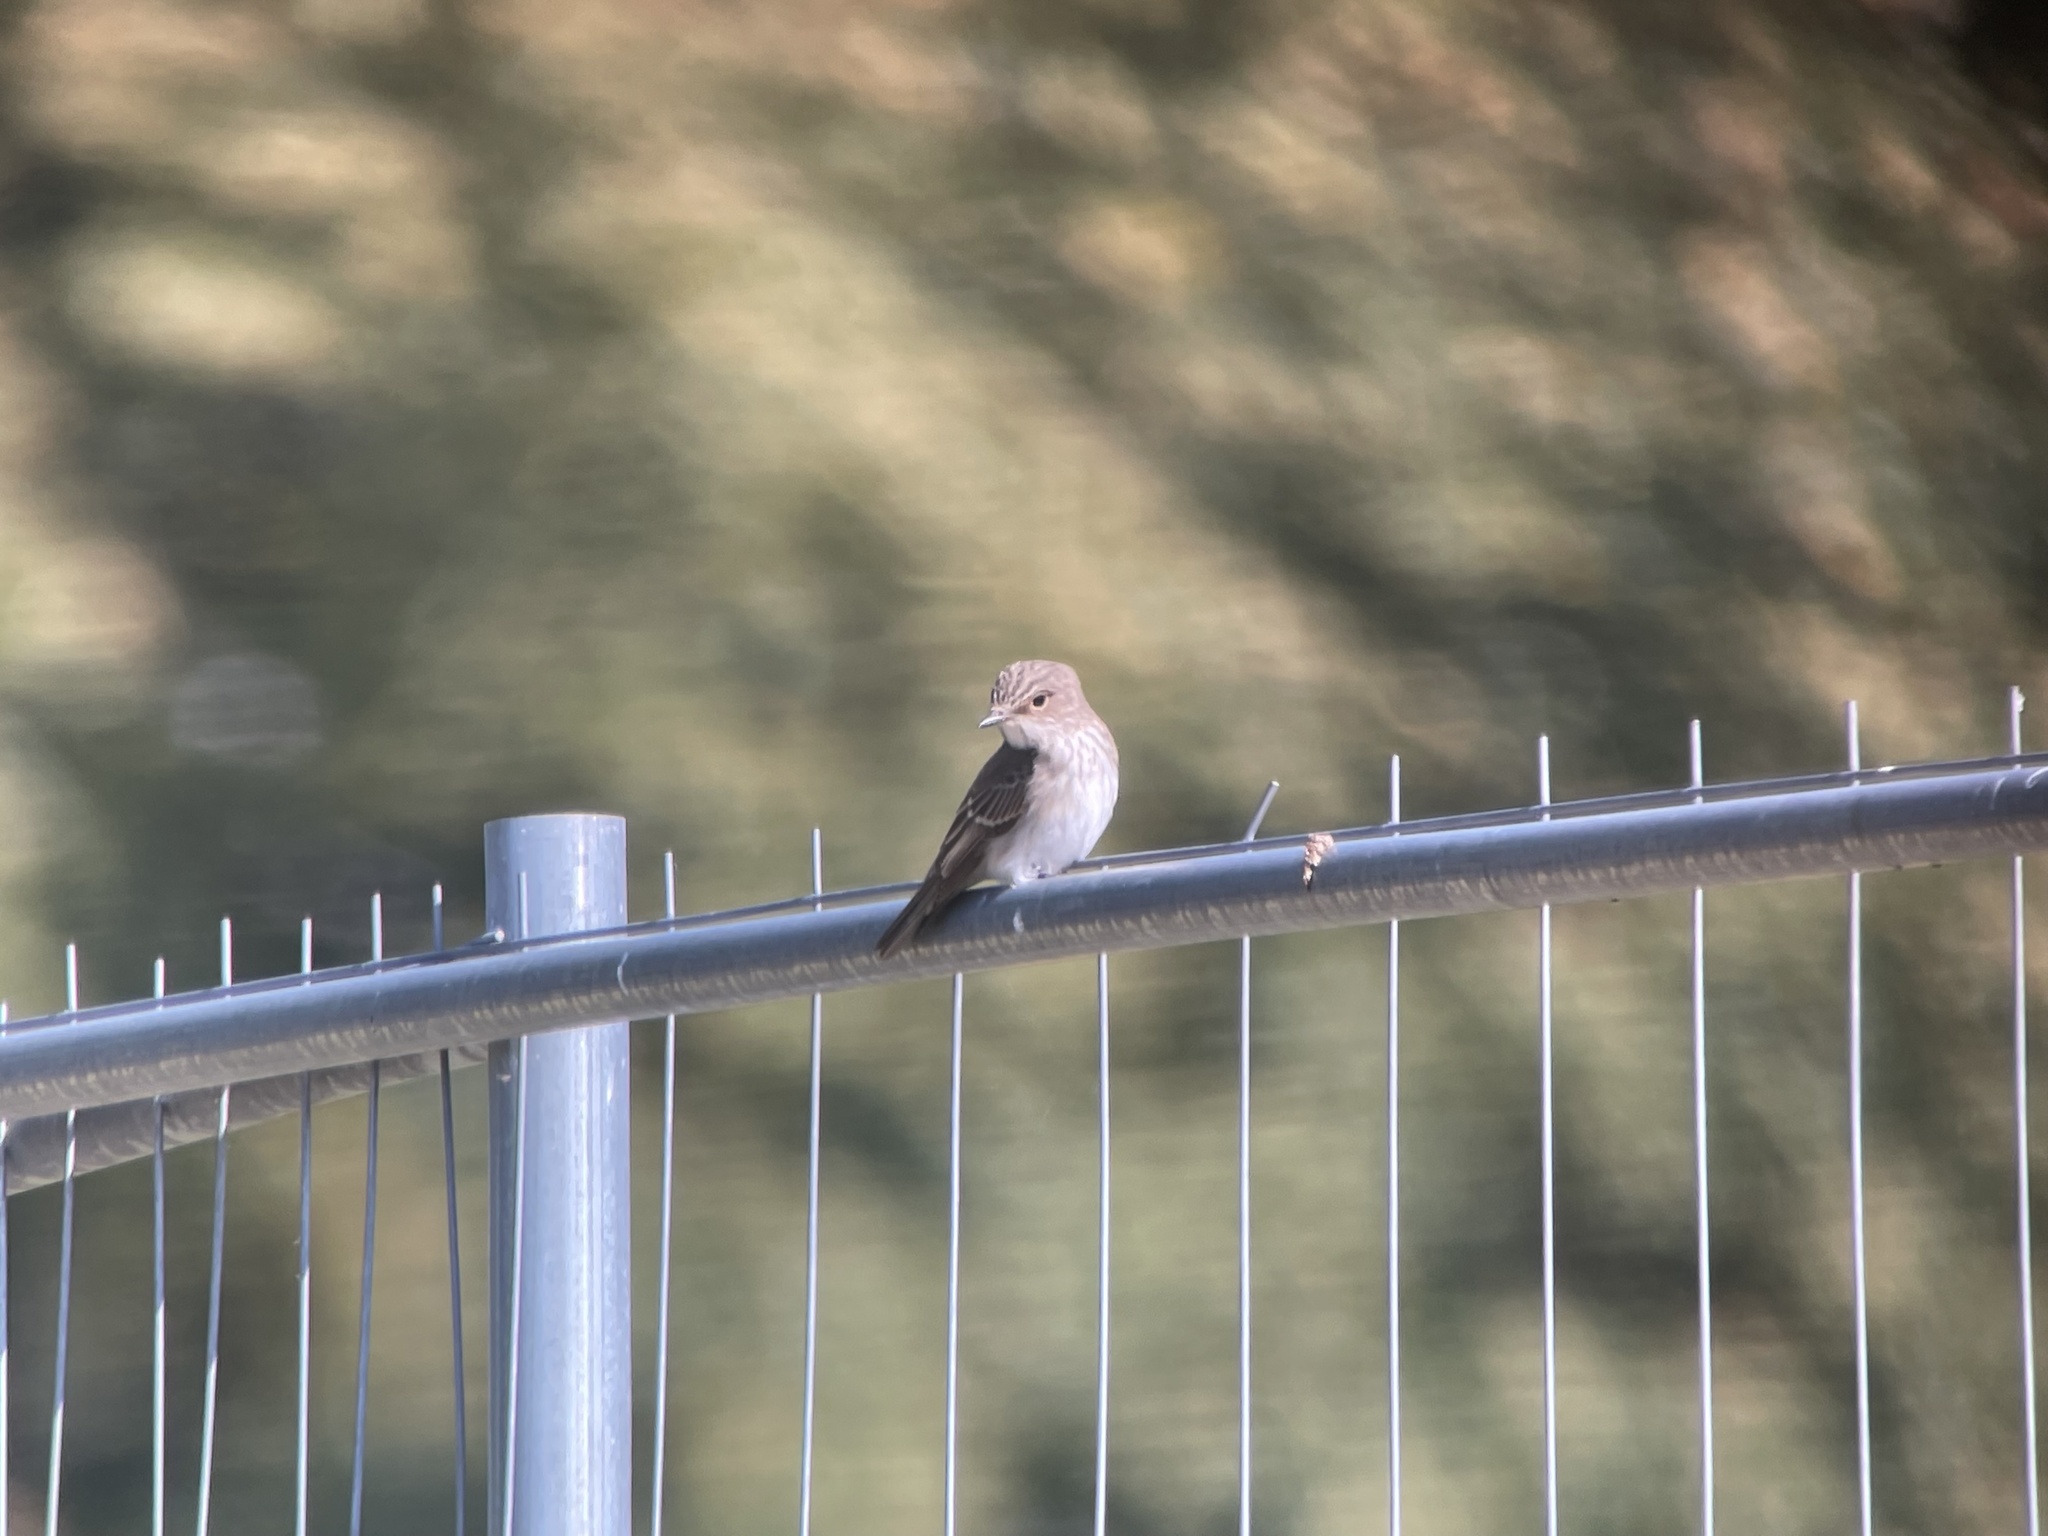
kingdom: Animalia
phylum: Chordata
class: Aves
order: Passeriformes
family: Muscicapidae
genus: Muscicapa
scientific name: Muscicapa striata
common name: Spotted flycatcher
